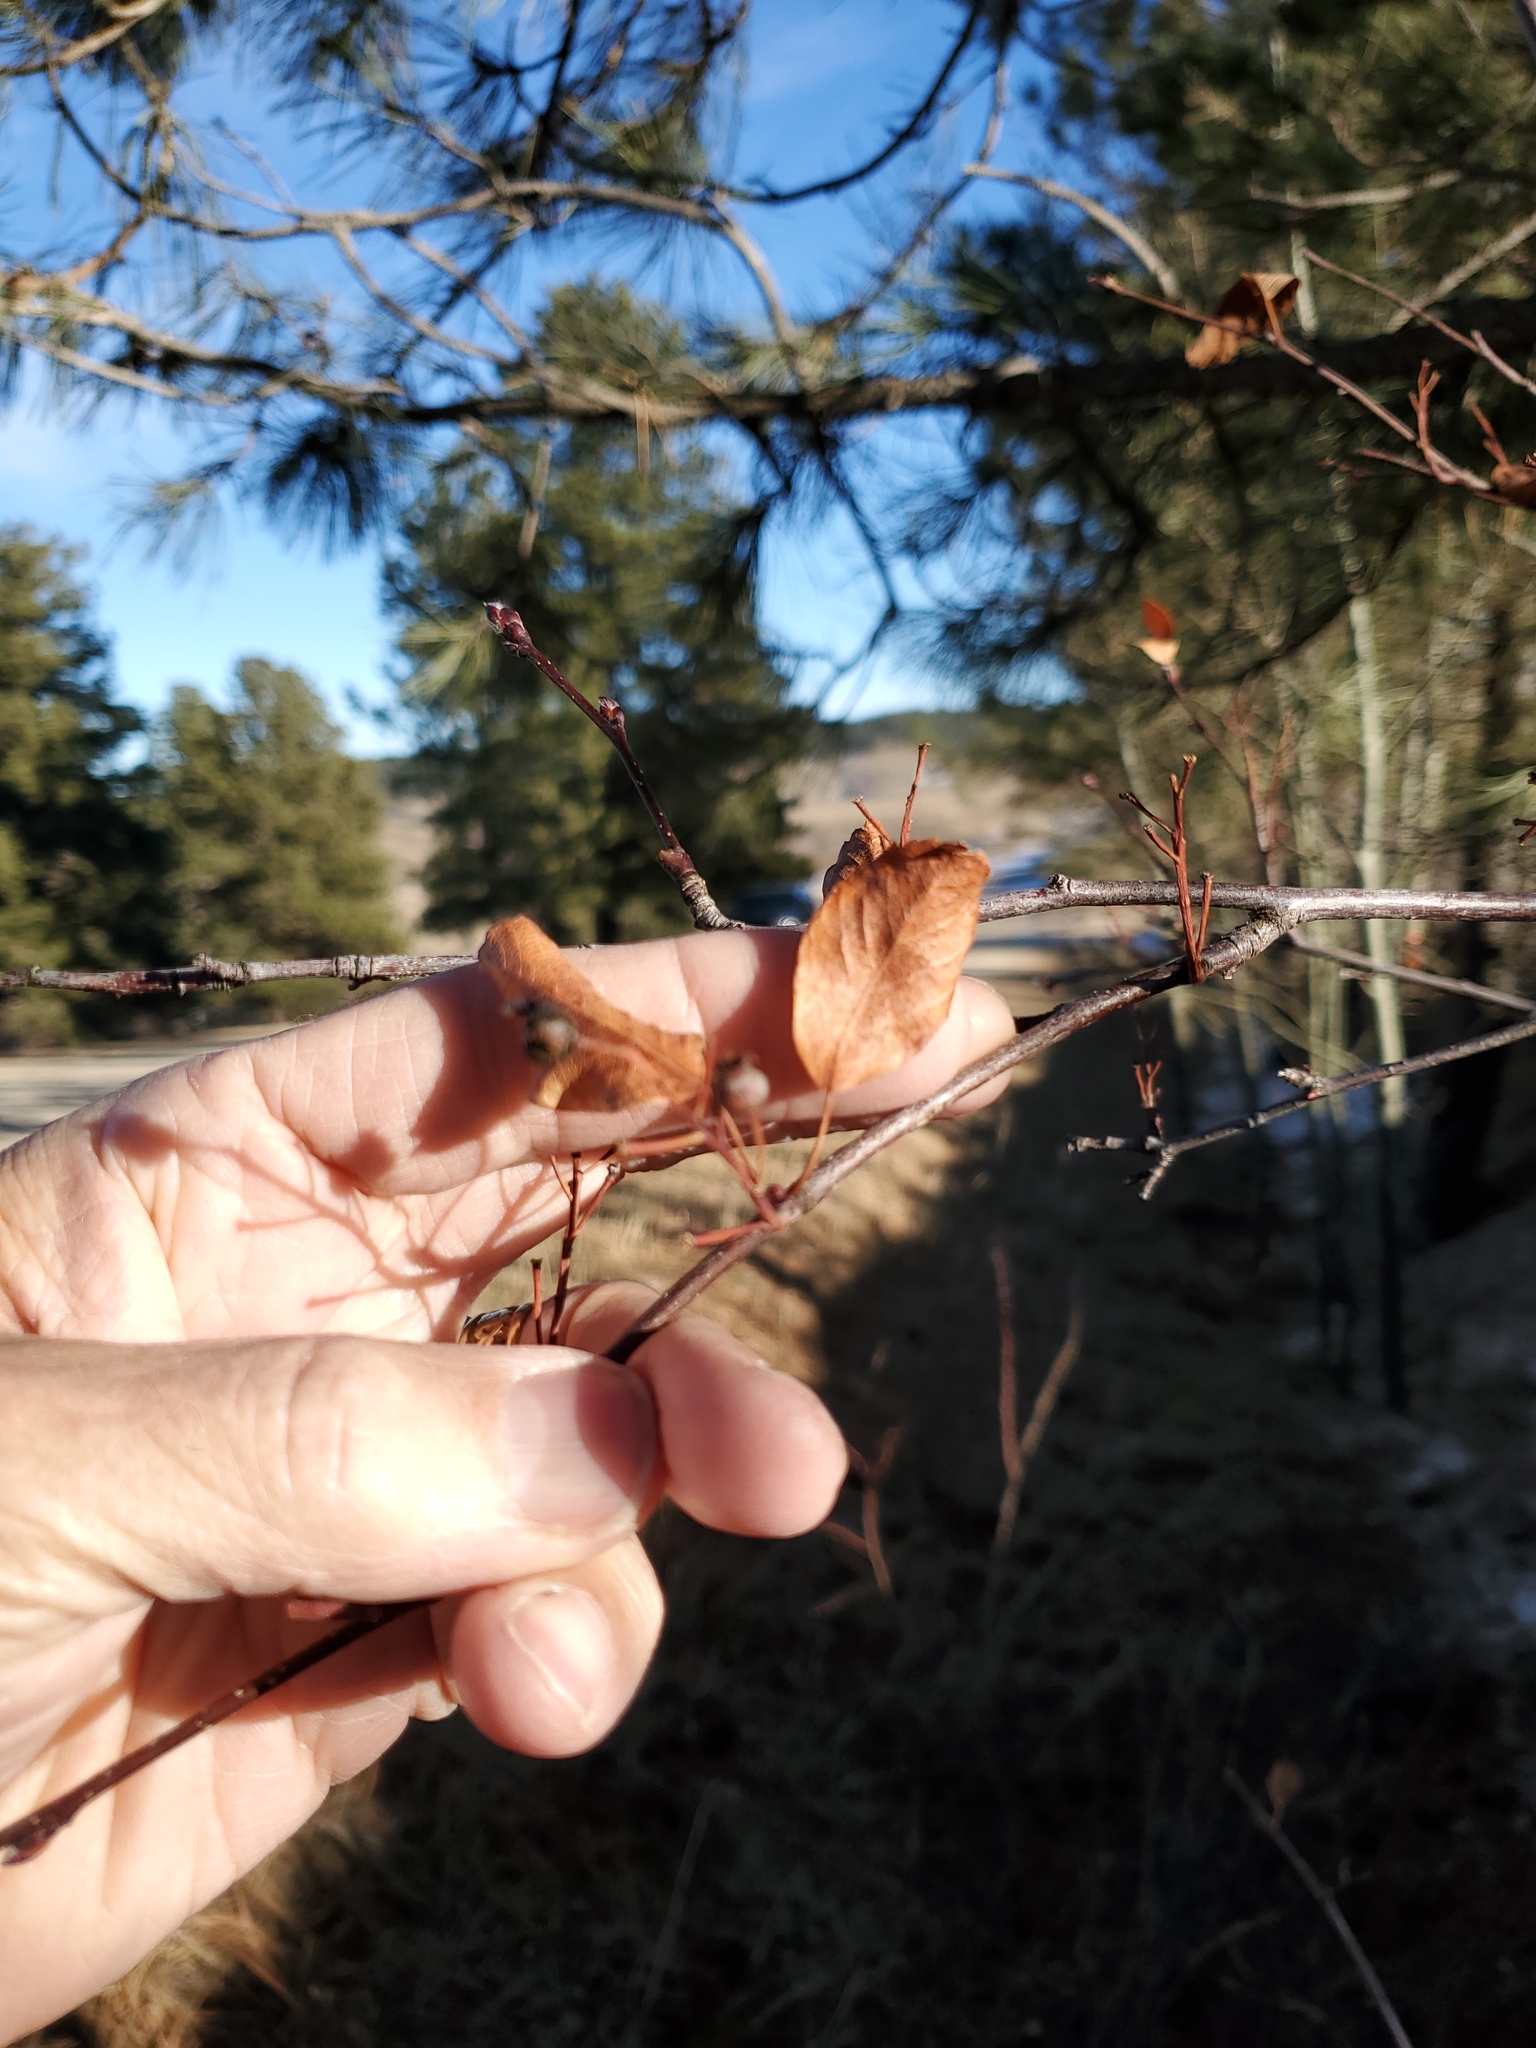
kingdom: Plantae
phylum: Tracheophyta
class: Magnoliopsida
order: Rosales
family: Rosaceae
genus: Prunus
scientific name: Prunus virginiana
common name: Chokecherry
